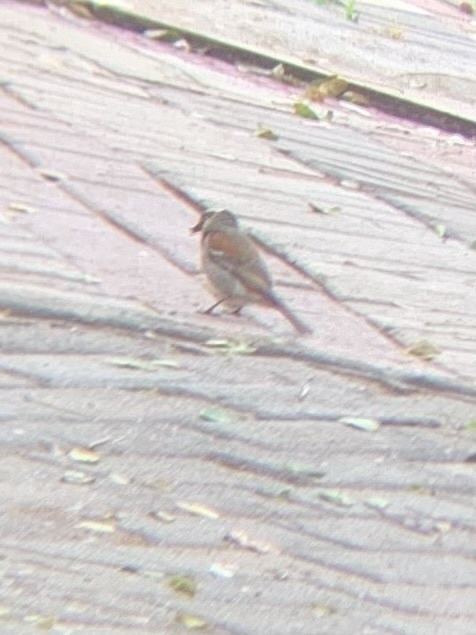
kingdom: Animalia
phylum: Chordata
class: Aves
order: Passeriformes
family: Passeridae
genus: Passer
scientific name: Passer melanurus
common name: Cape sparrow
